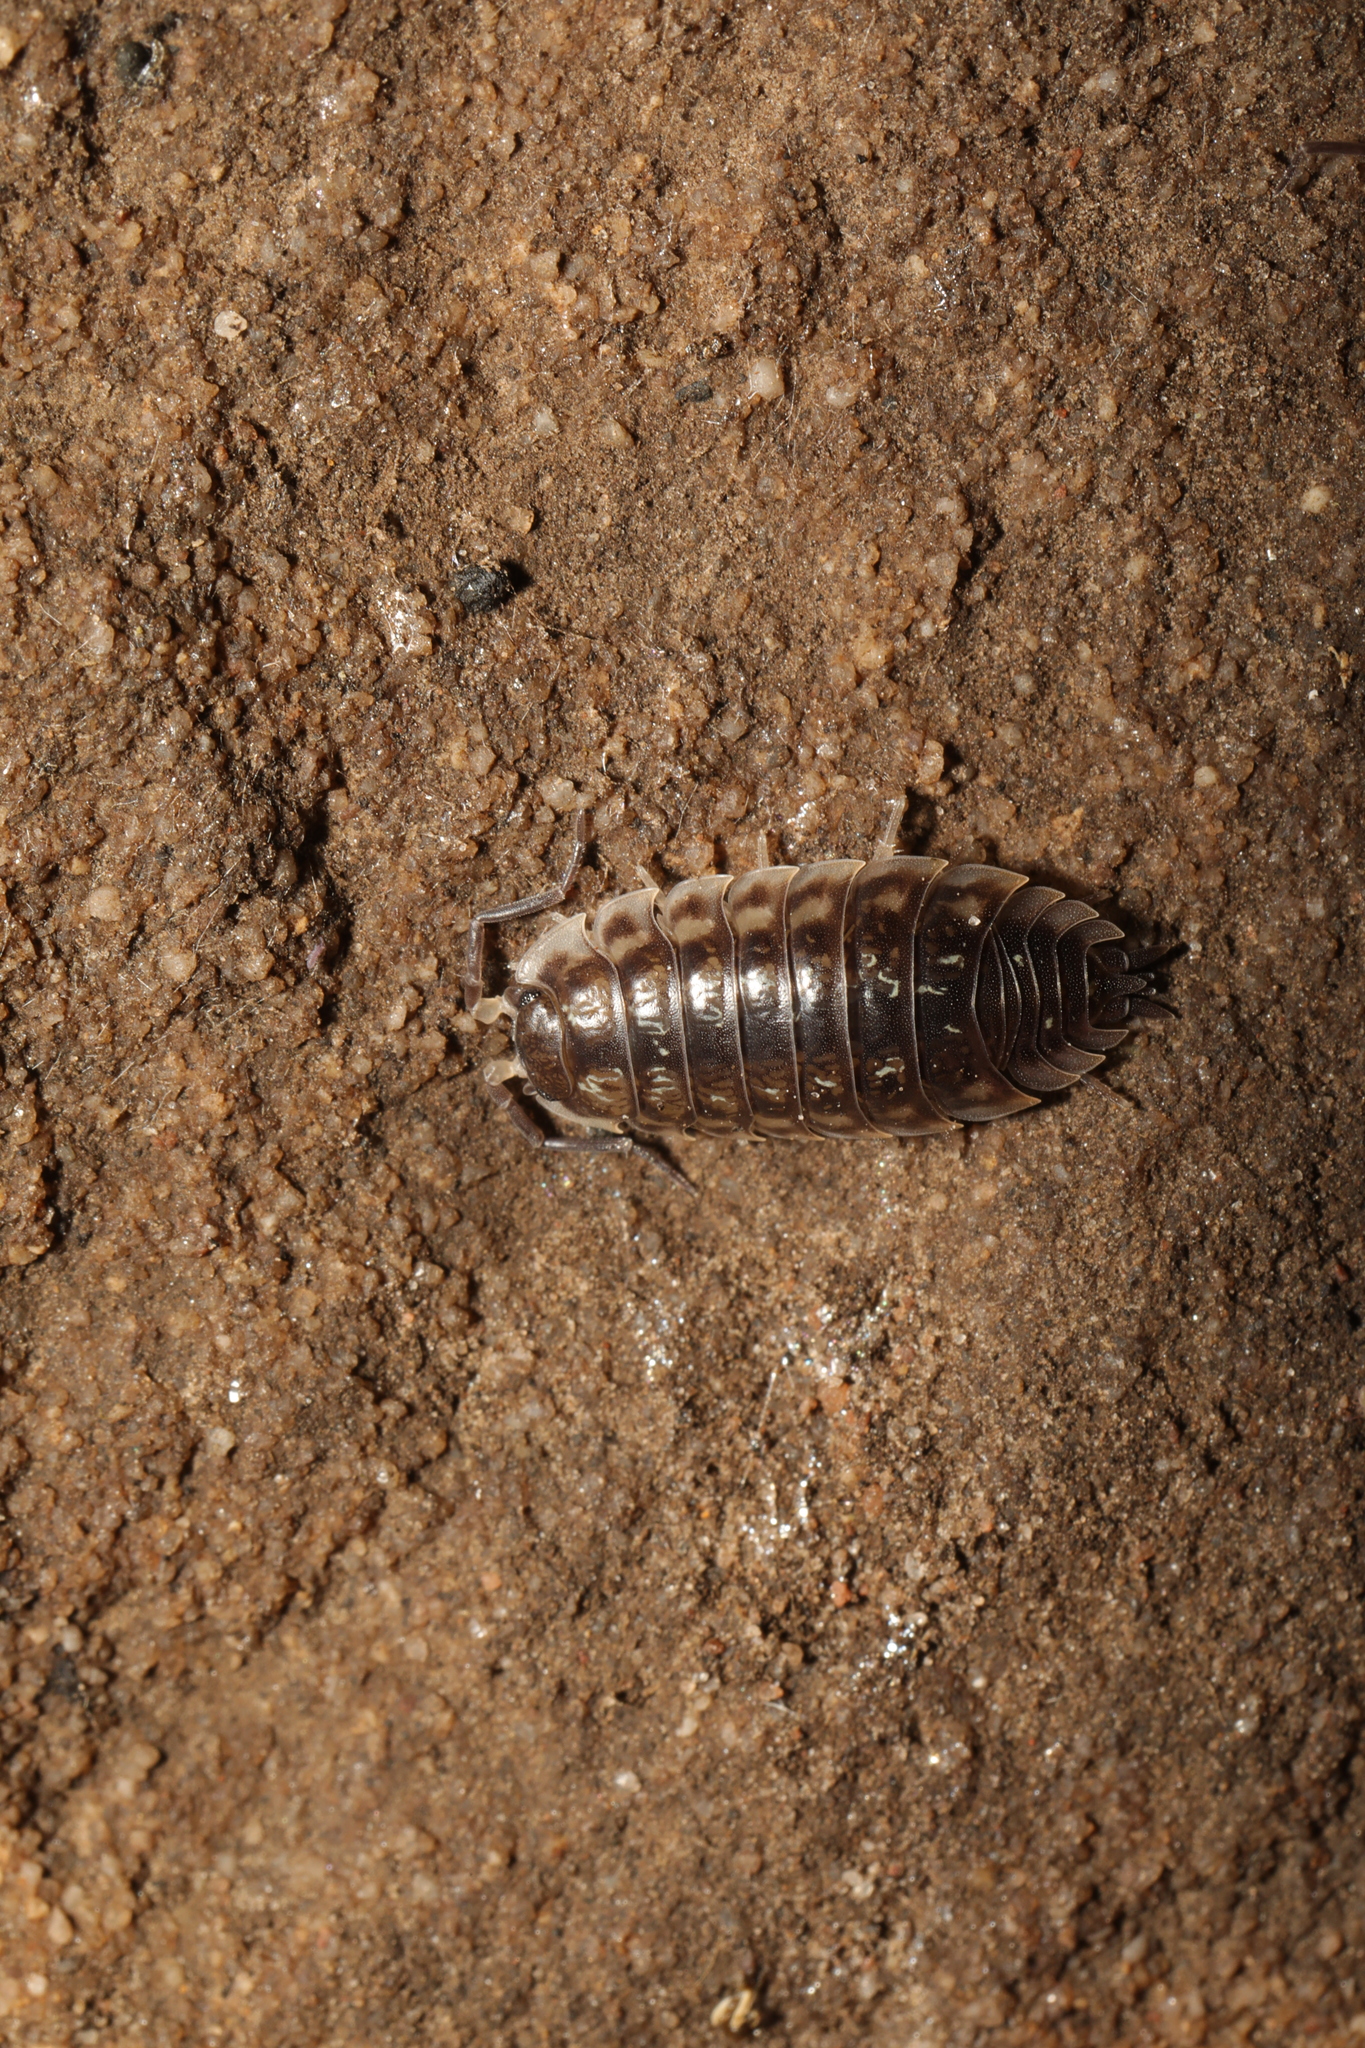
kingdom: Animalia
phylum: Arthropoda
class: Malacostraca
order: Isopoda
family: Oniscidae
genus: Oniscus
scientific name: Oniscus asellus
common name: Common shiny woodlouse
